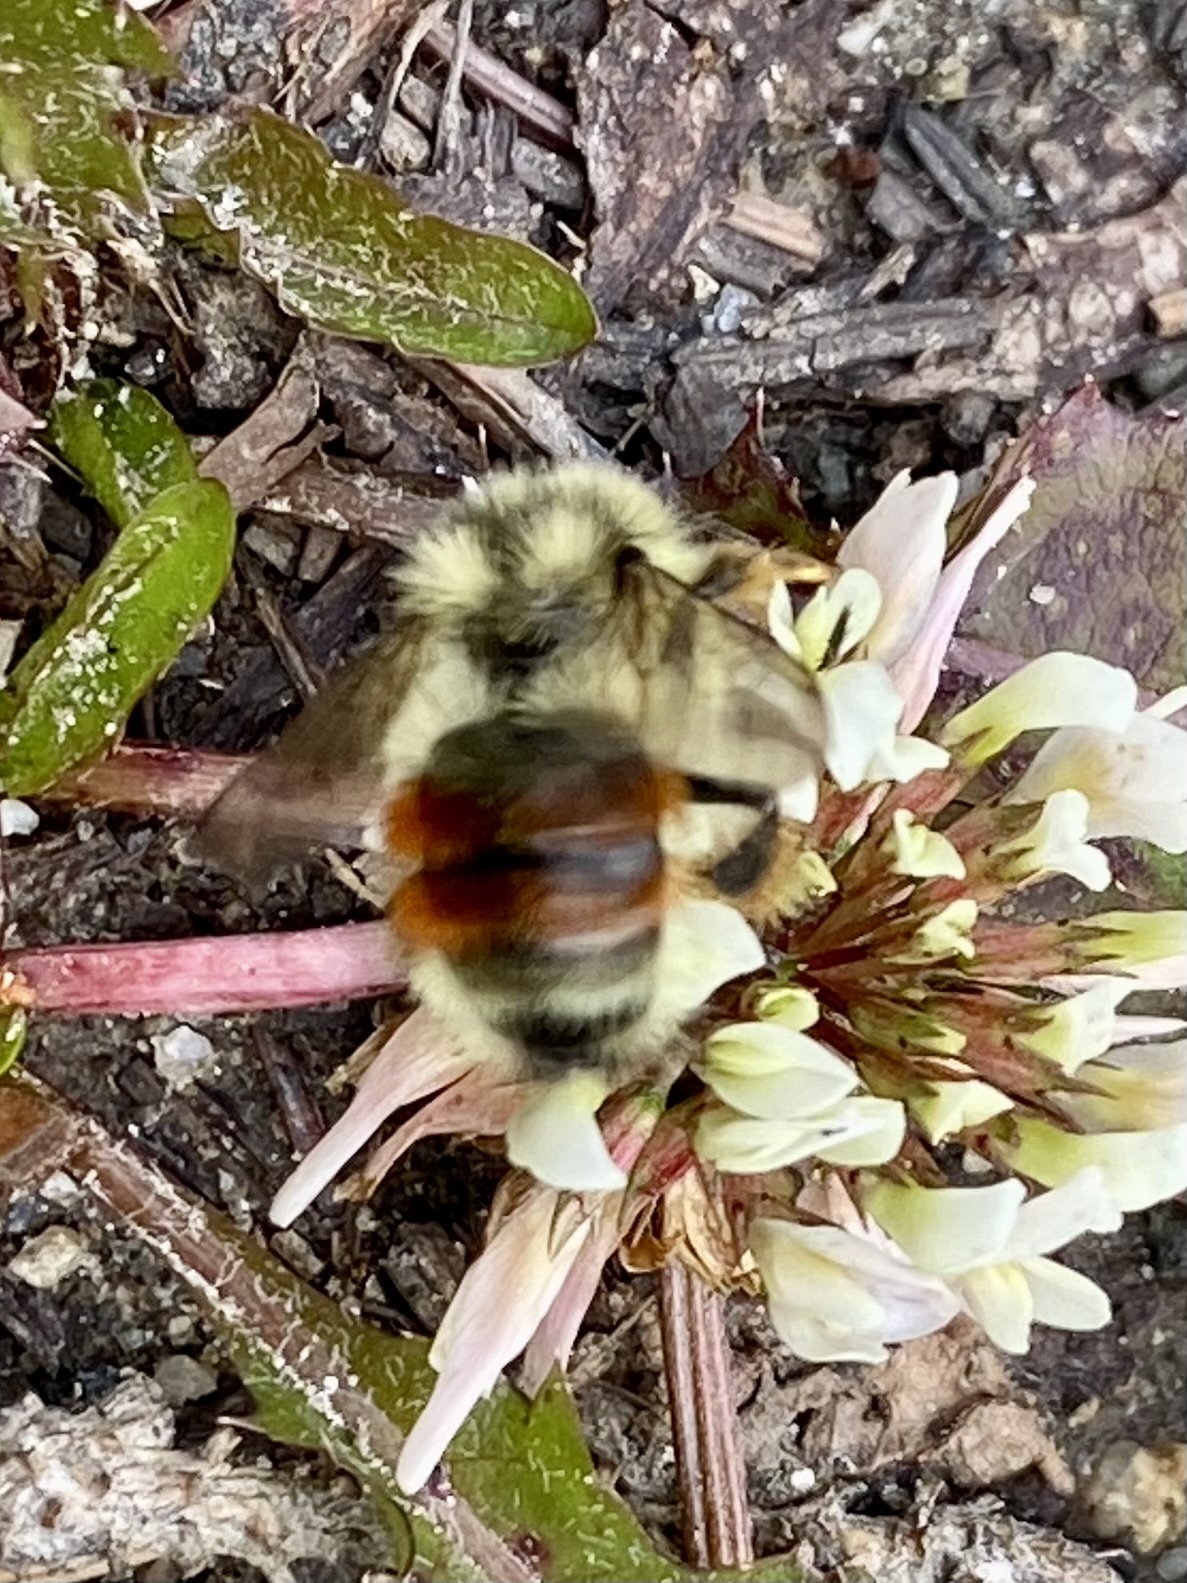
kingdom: Animalia
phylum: Arthropoda
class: Insecta
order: Hymenoptera
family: Apidae
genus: Bombus
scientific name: Bombus bifarius
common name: Two form bumble bee
